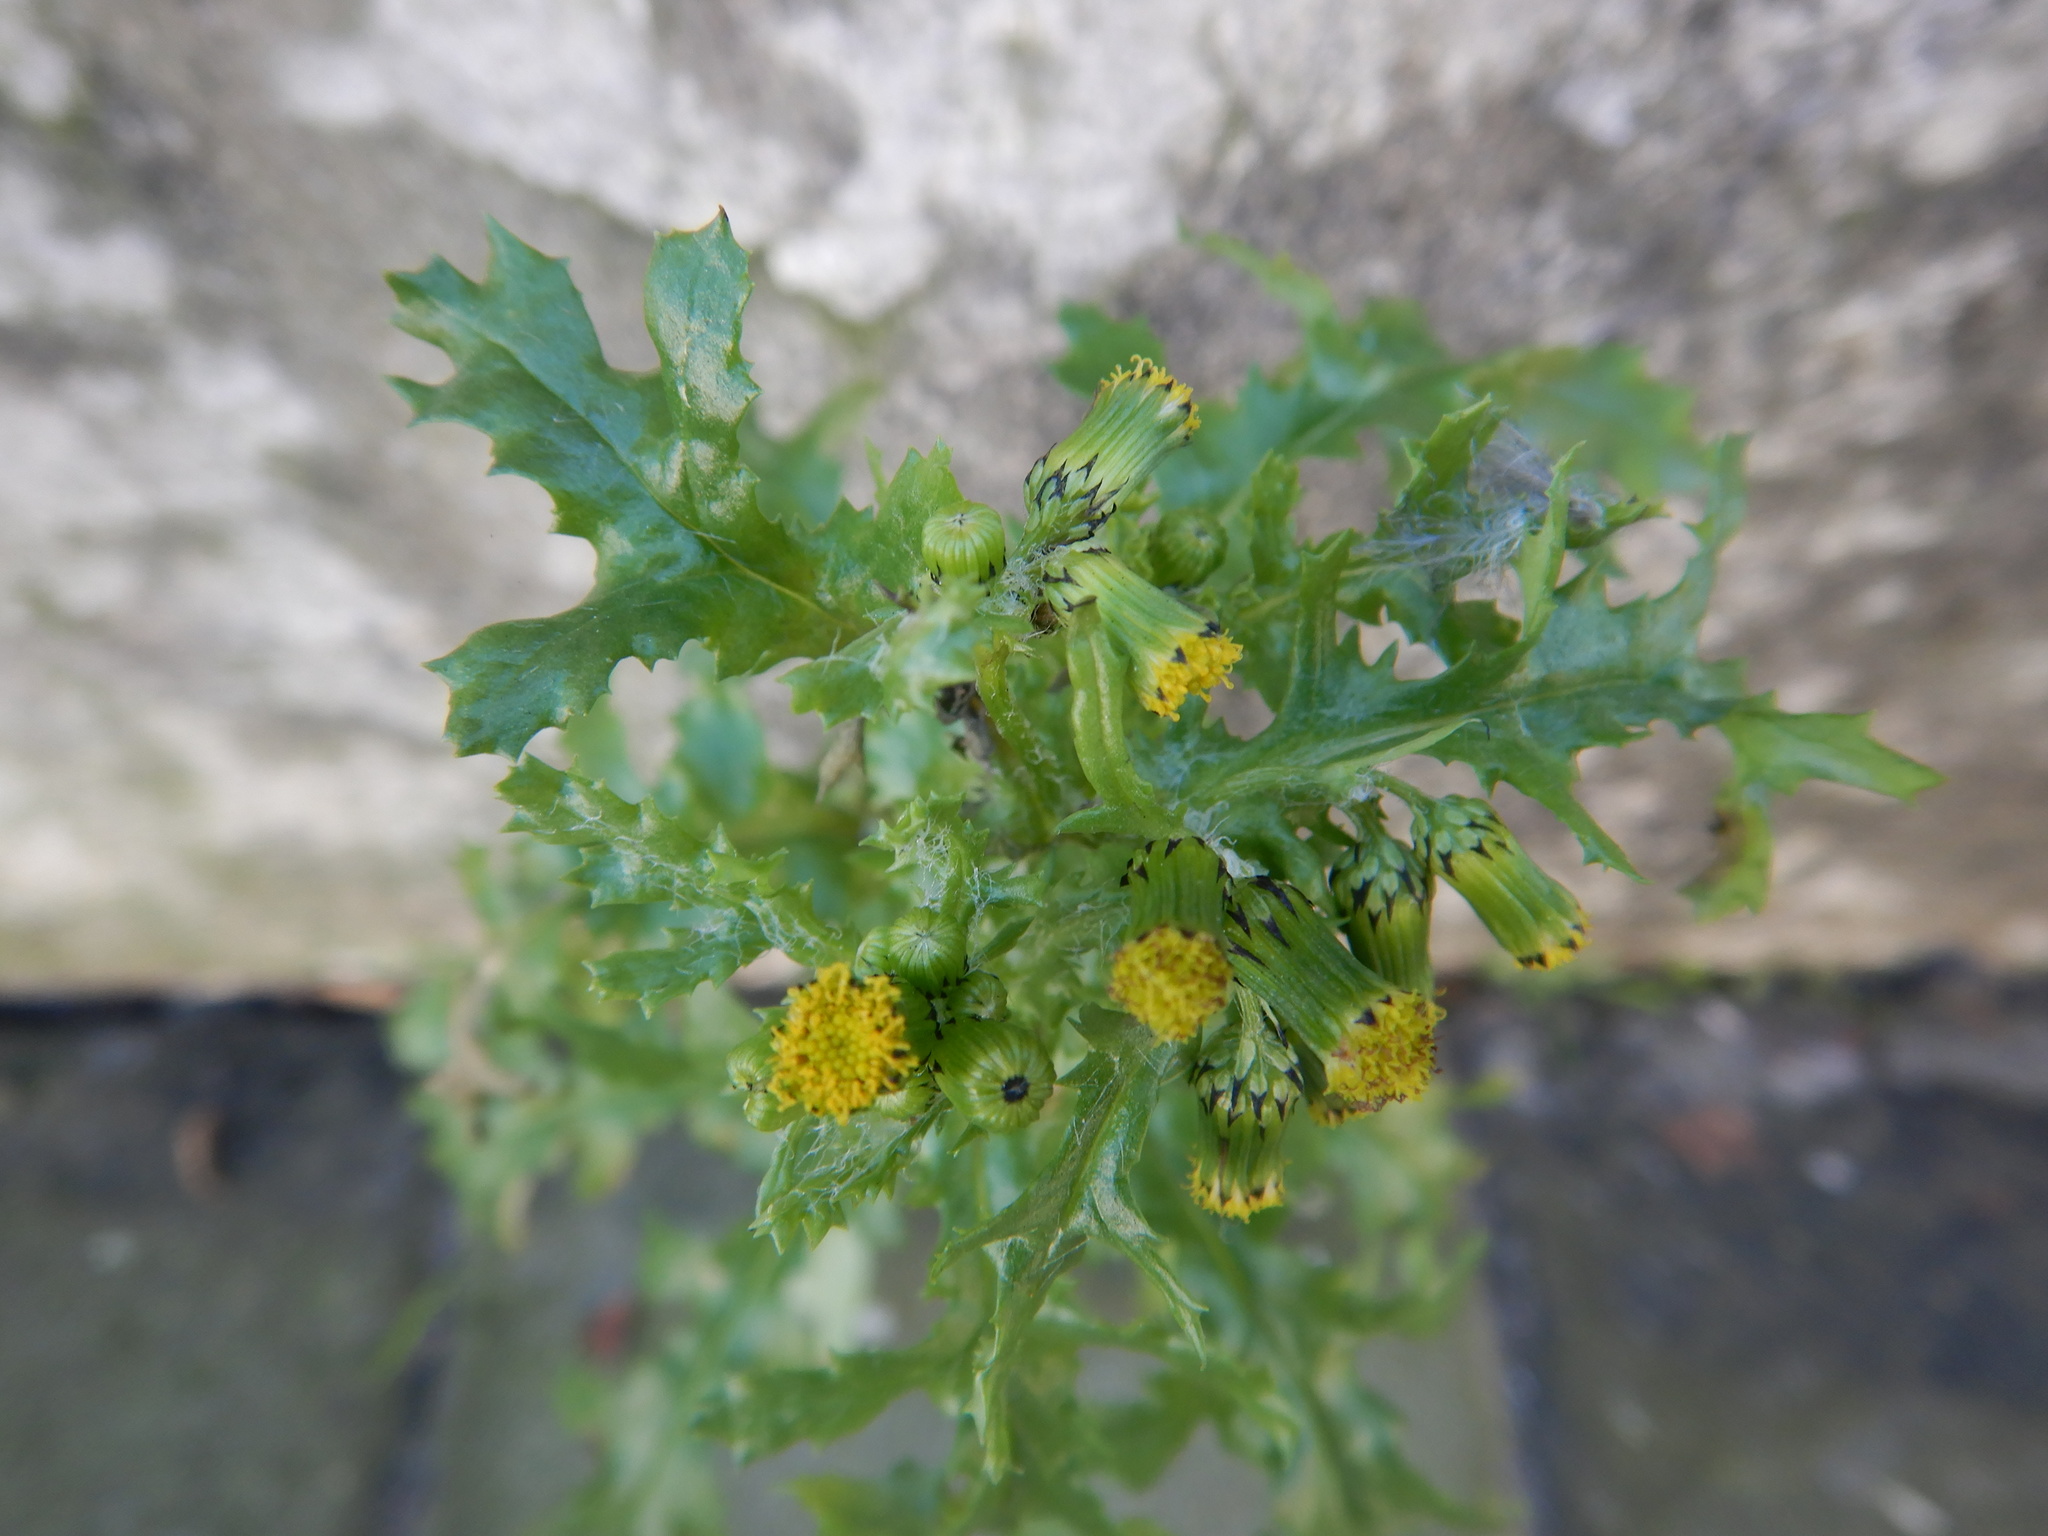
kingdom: Plantae
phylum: Tracheophyta
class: Magnoliopsida
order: Asterales
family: Asteraceae
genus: Senecio
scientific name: Senecio vulgaris
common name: Old-man-in-the-spring
